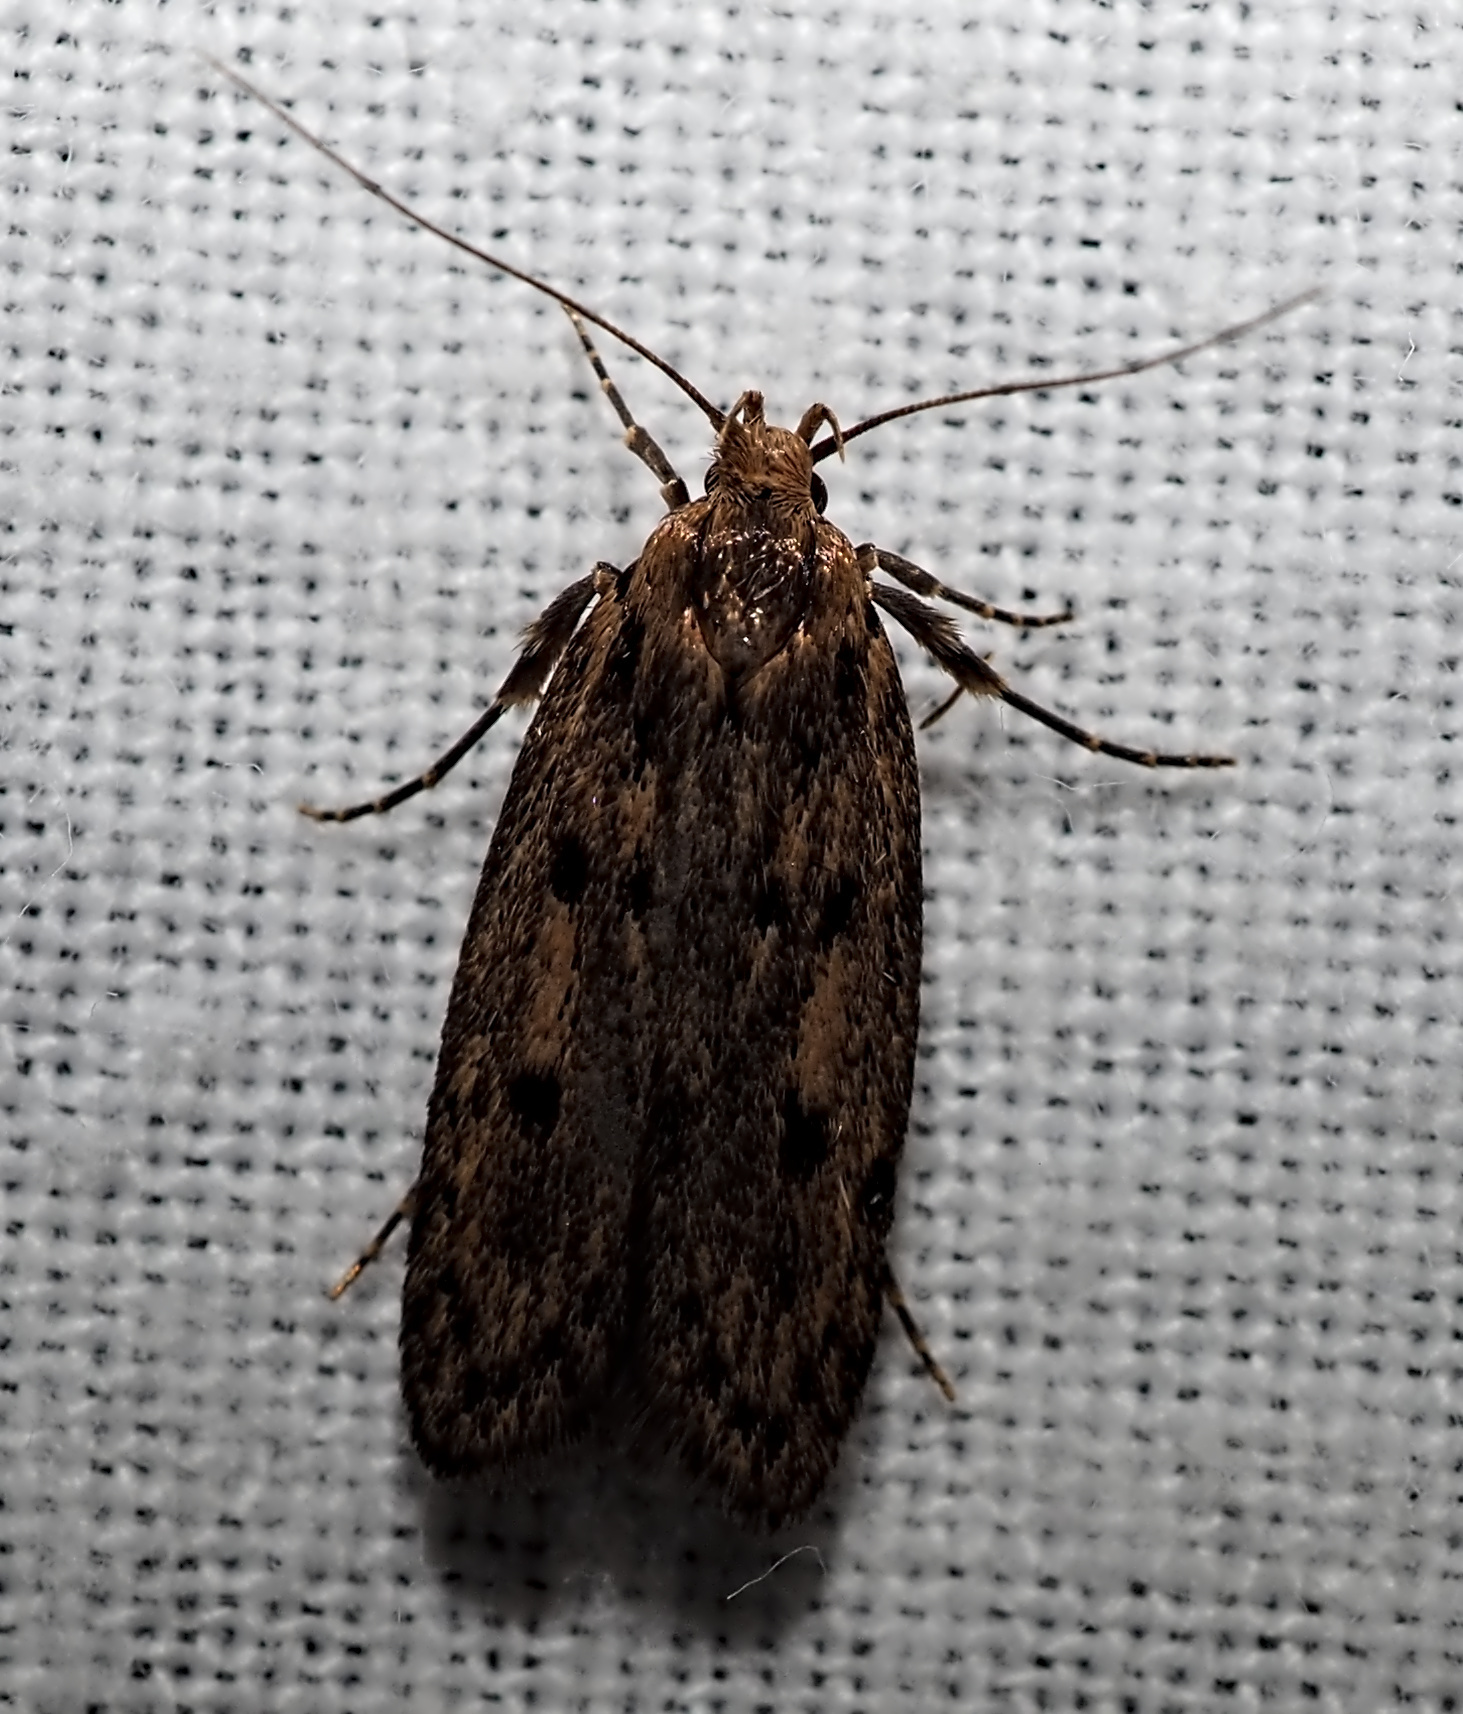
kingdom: Animalia
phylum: Arthropoda
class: Insecta
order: Lepidoptera
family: Oecophoridae
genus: Hofmannophila
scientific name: Hofmannophila pseudospretella
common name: Brown house moth
